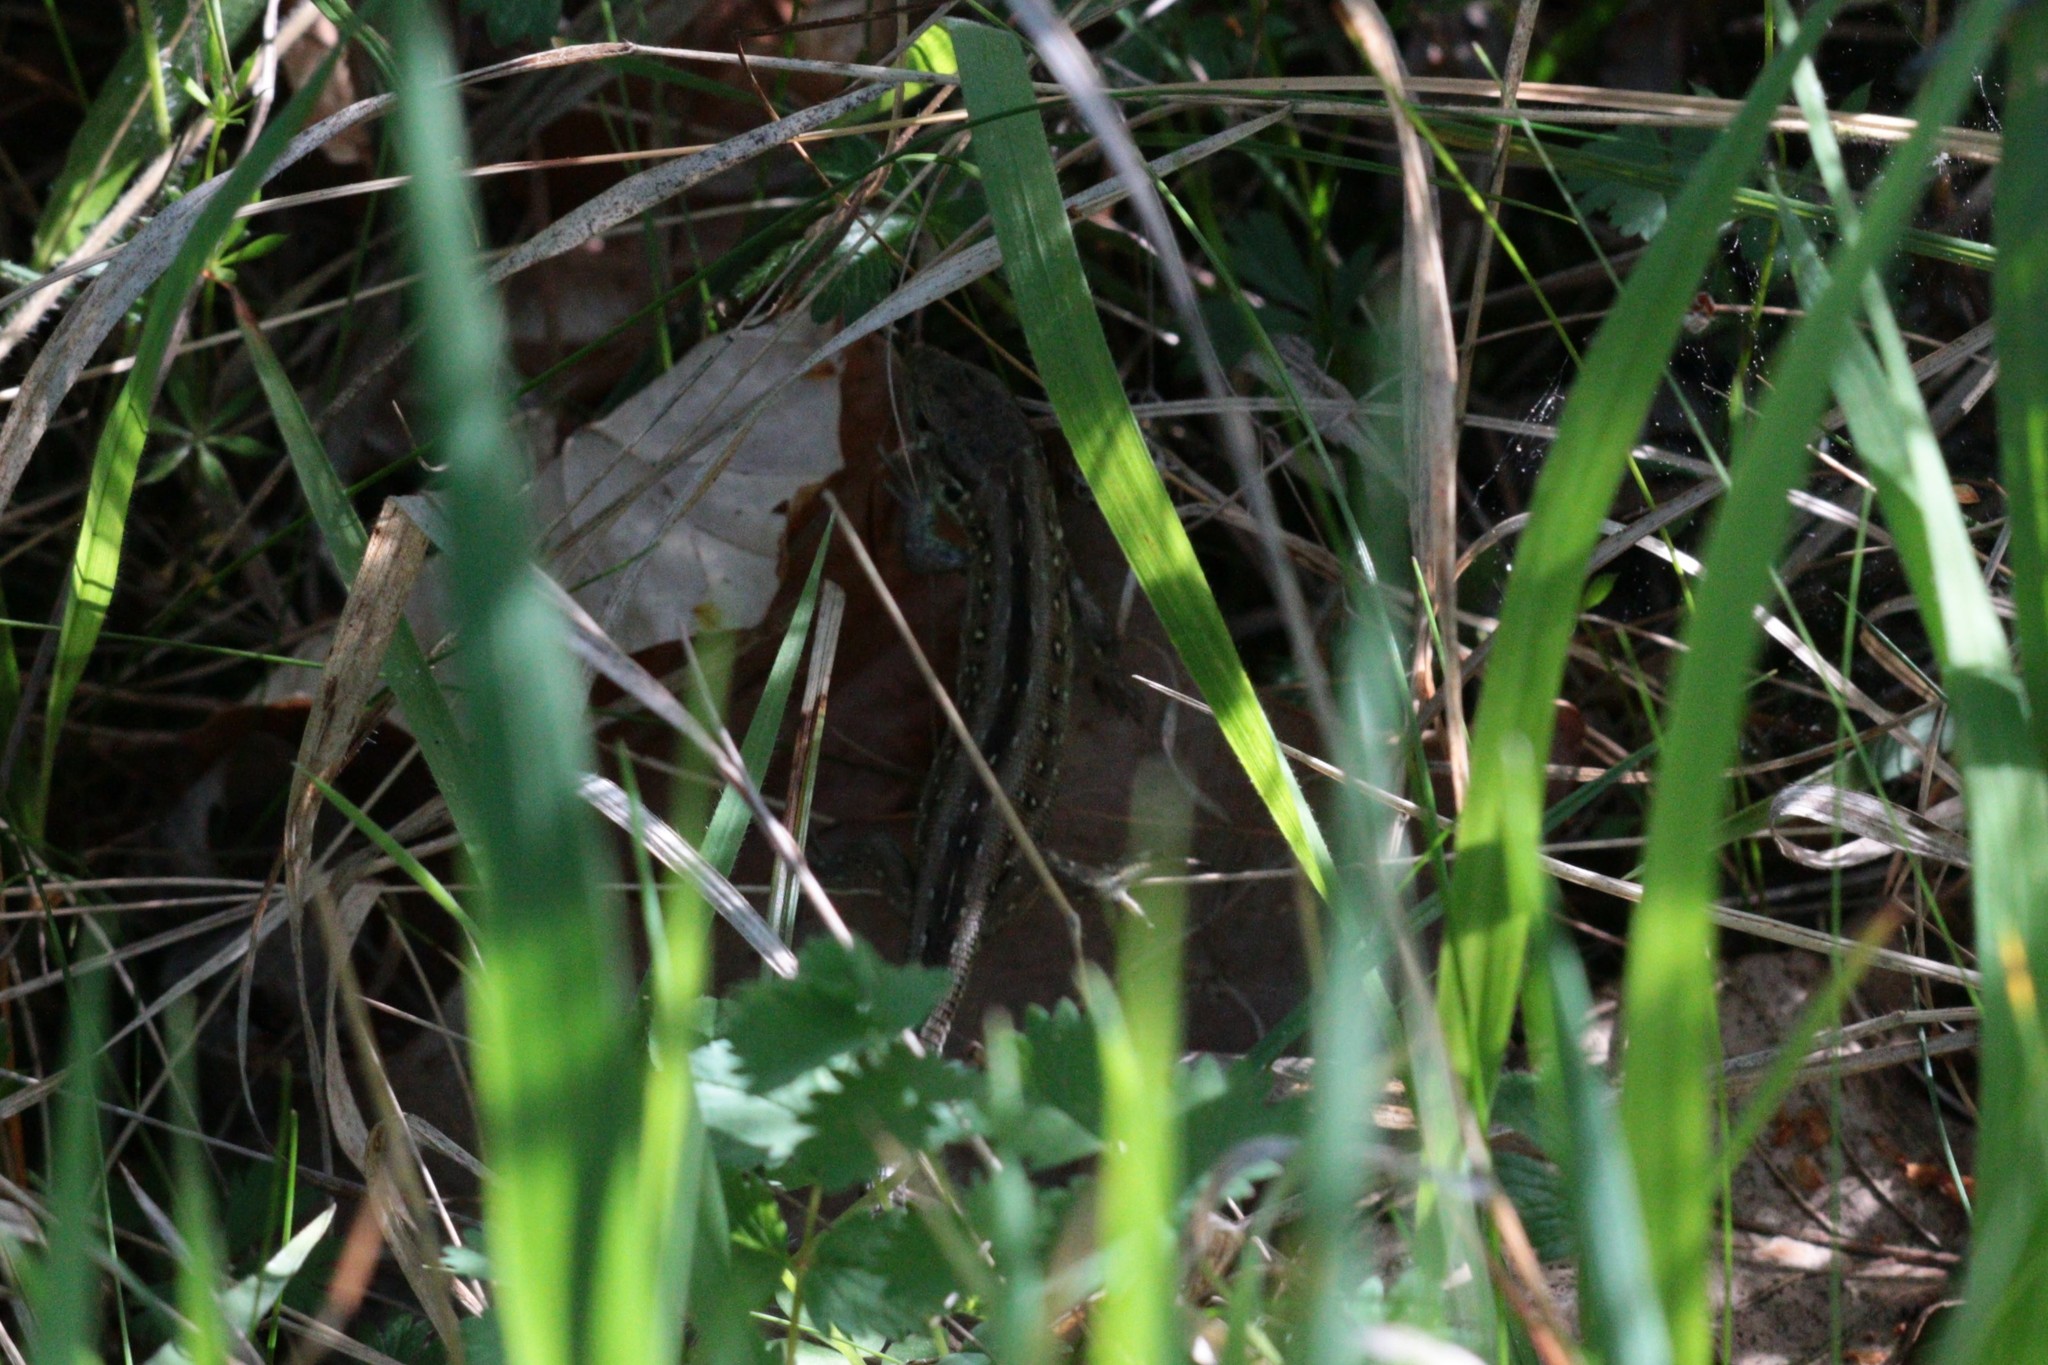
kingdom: Animalia
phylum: Chordata
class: Squamata
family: Lacertidae
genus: Lacerta
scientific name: Lacerta agilis
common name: Sand lizard
